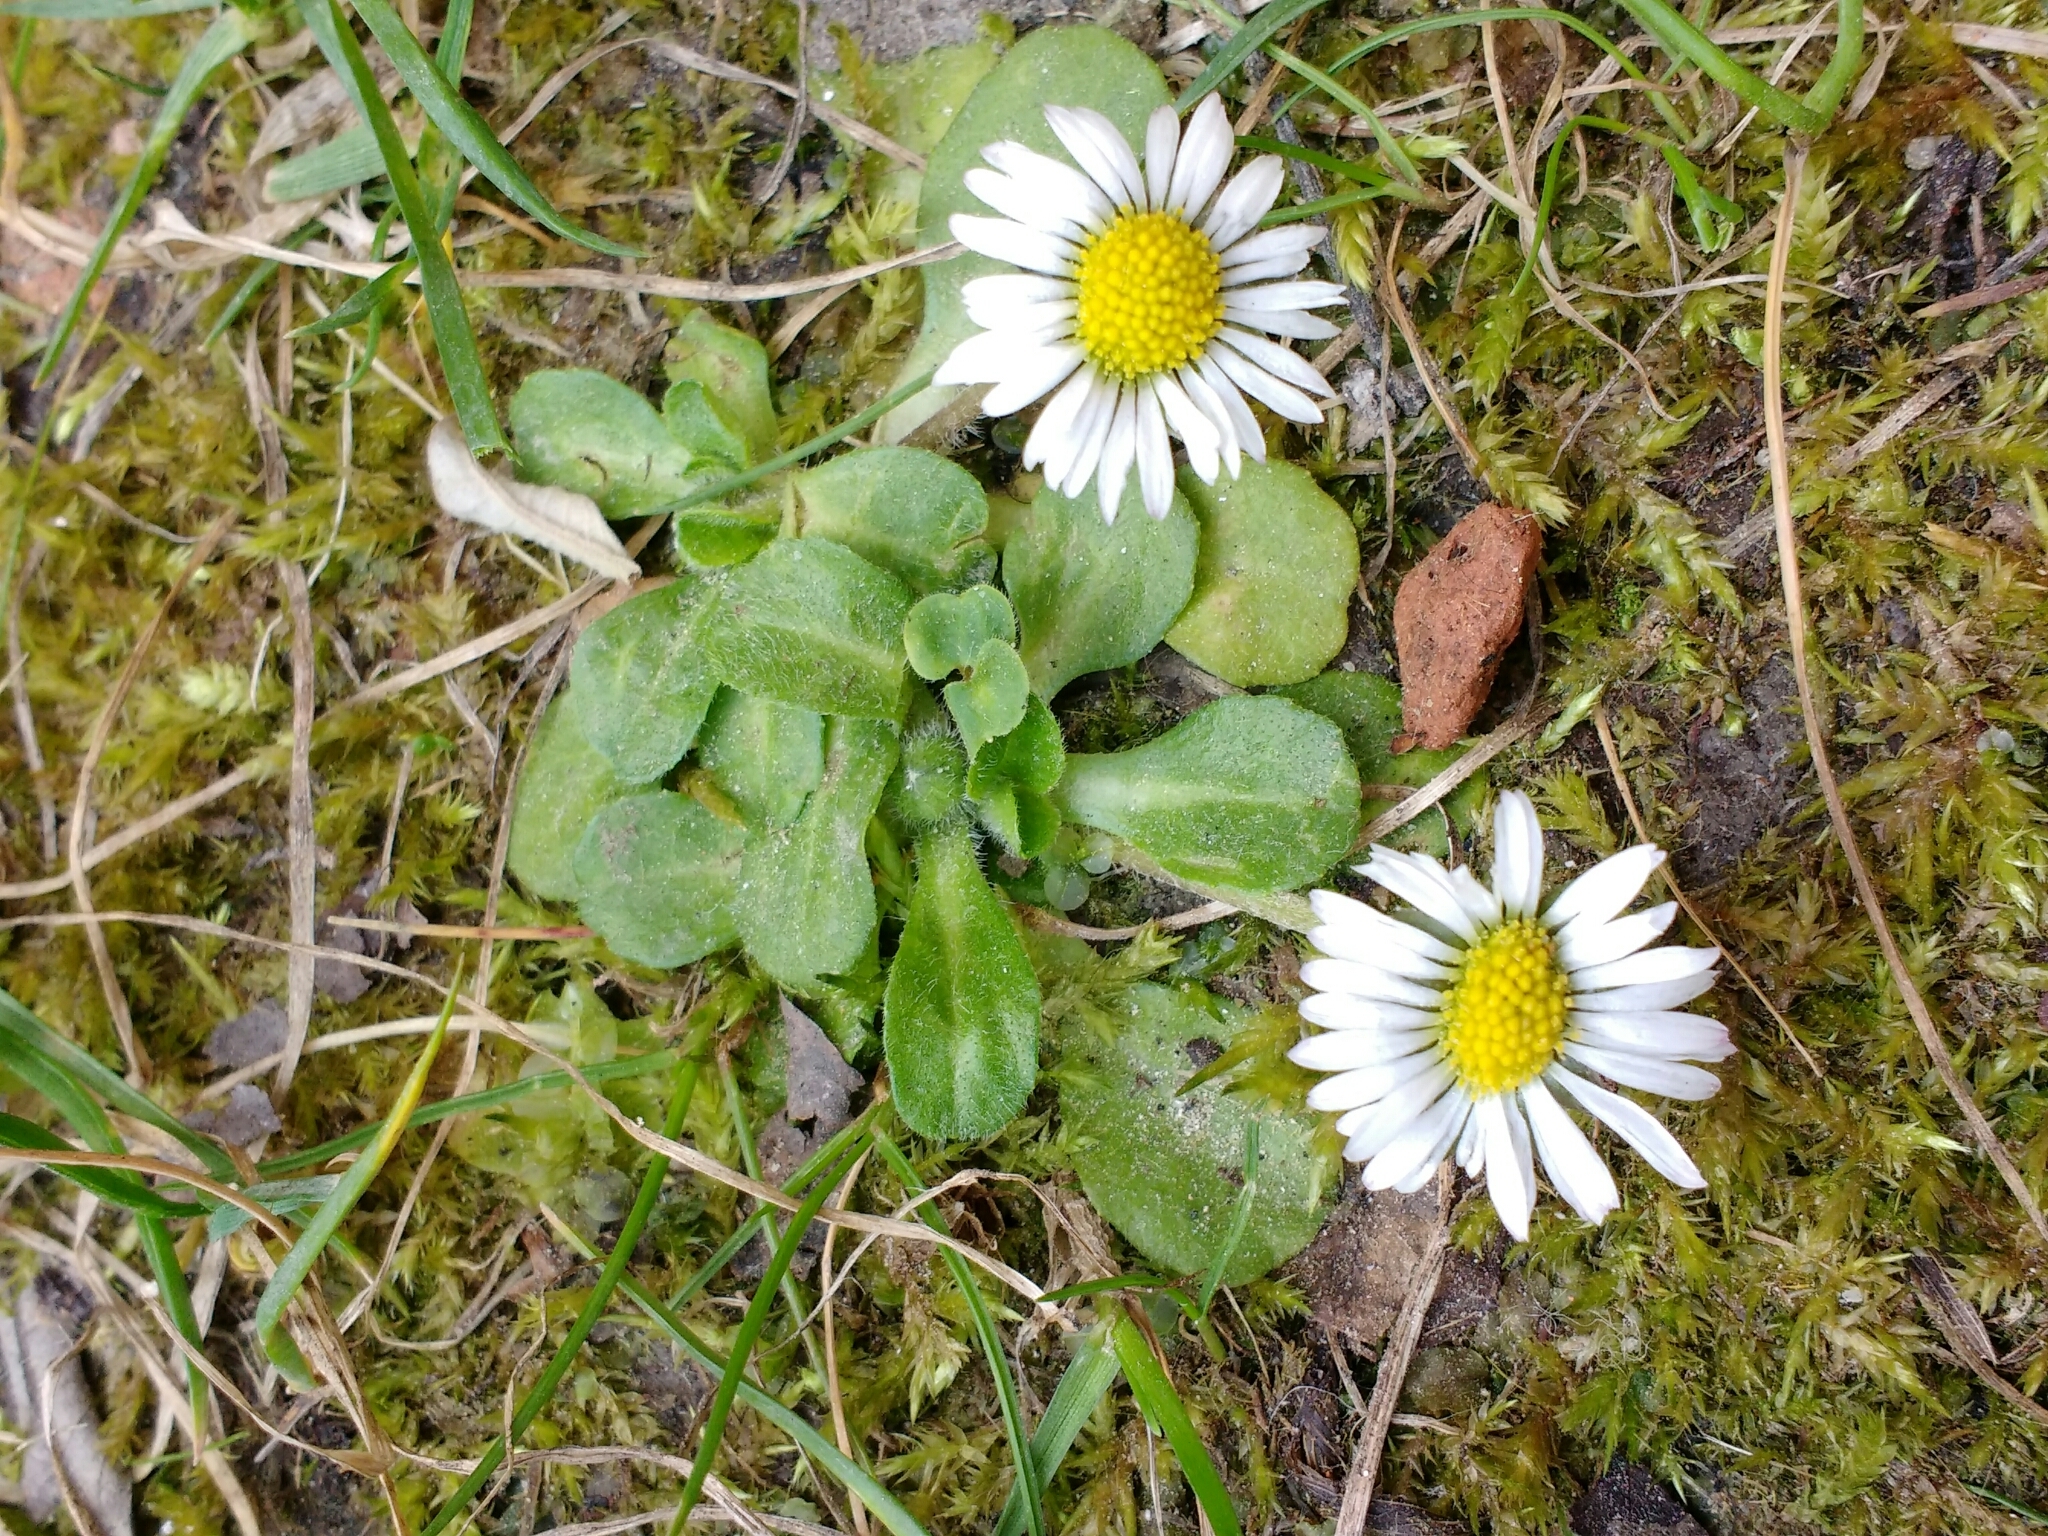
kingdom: Plantae
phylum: Tracheophyta
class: Magnoliopsida
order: Asterales
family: Asteraceae
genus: Bellis
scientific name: Bellis perennis
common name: Lawndaisy
